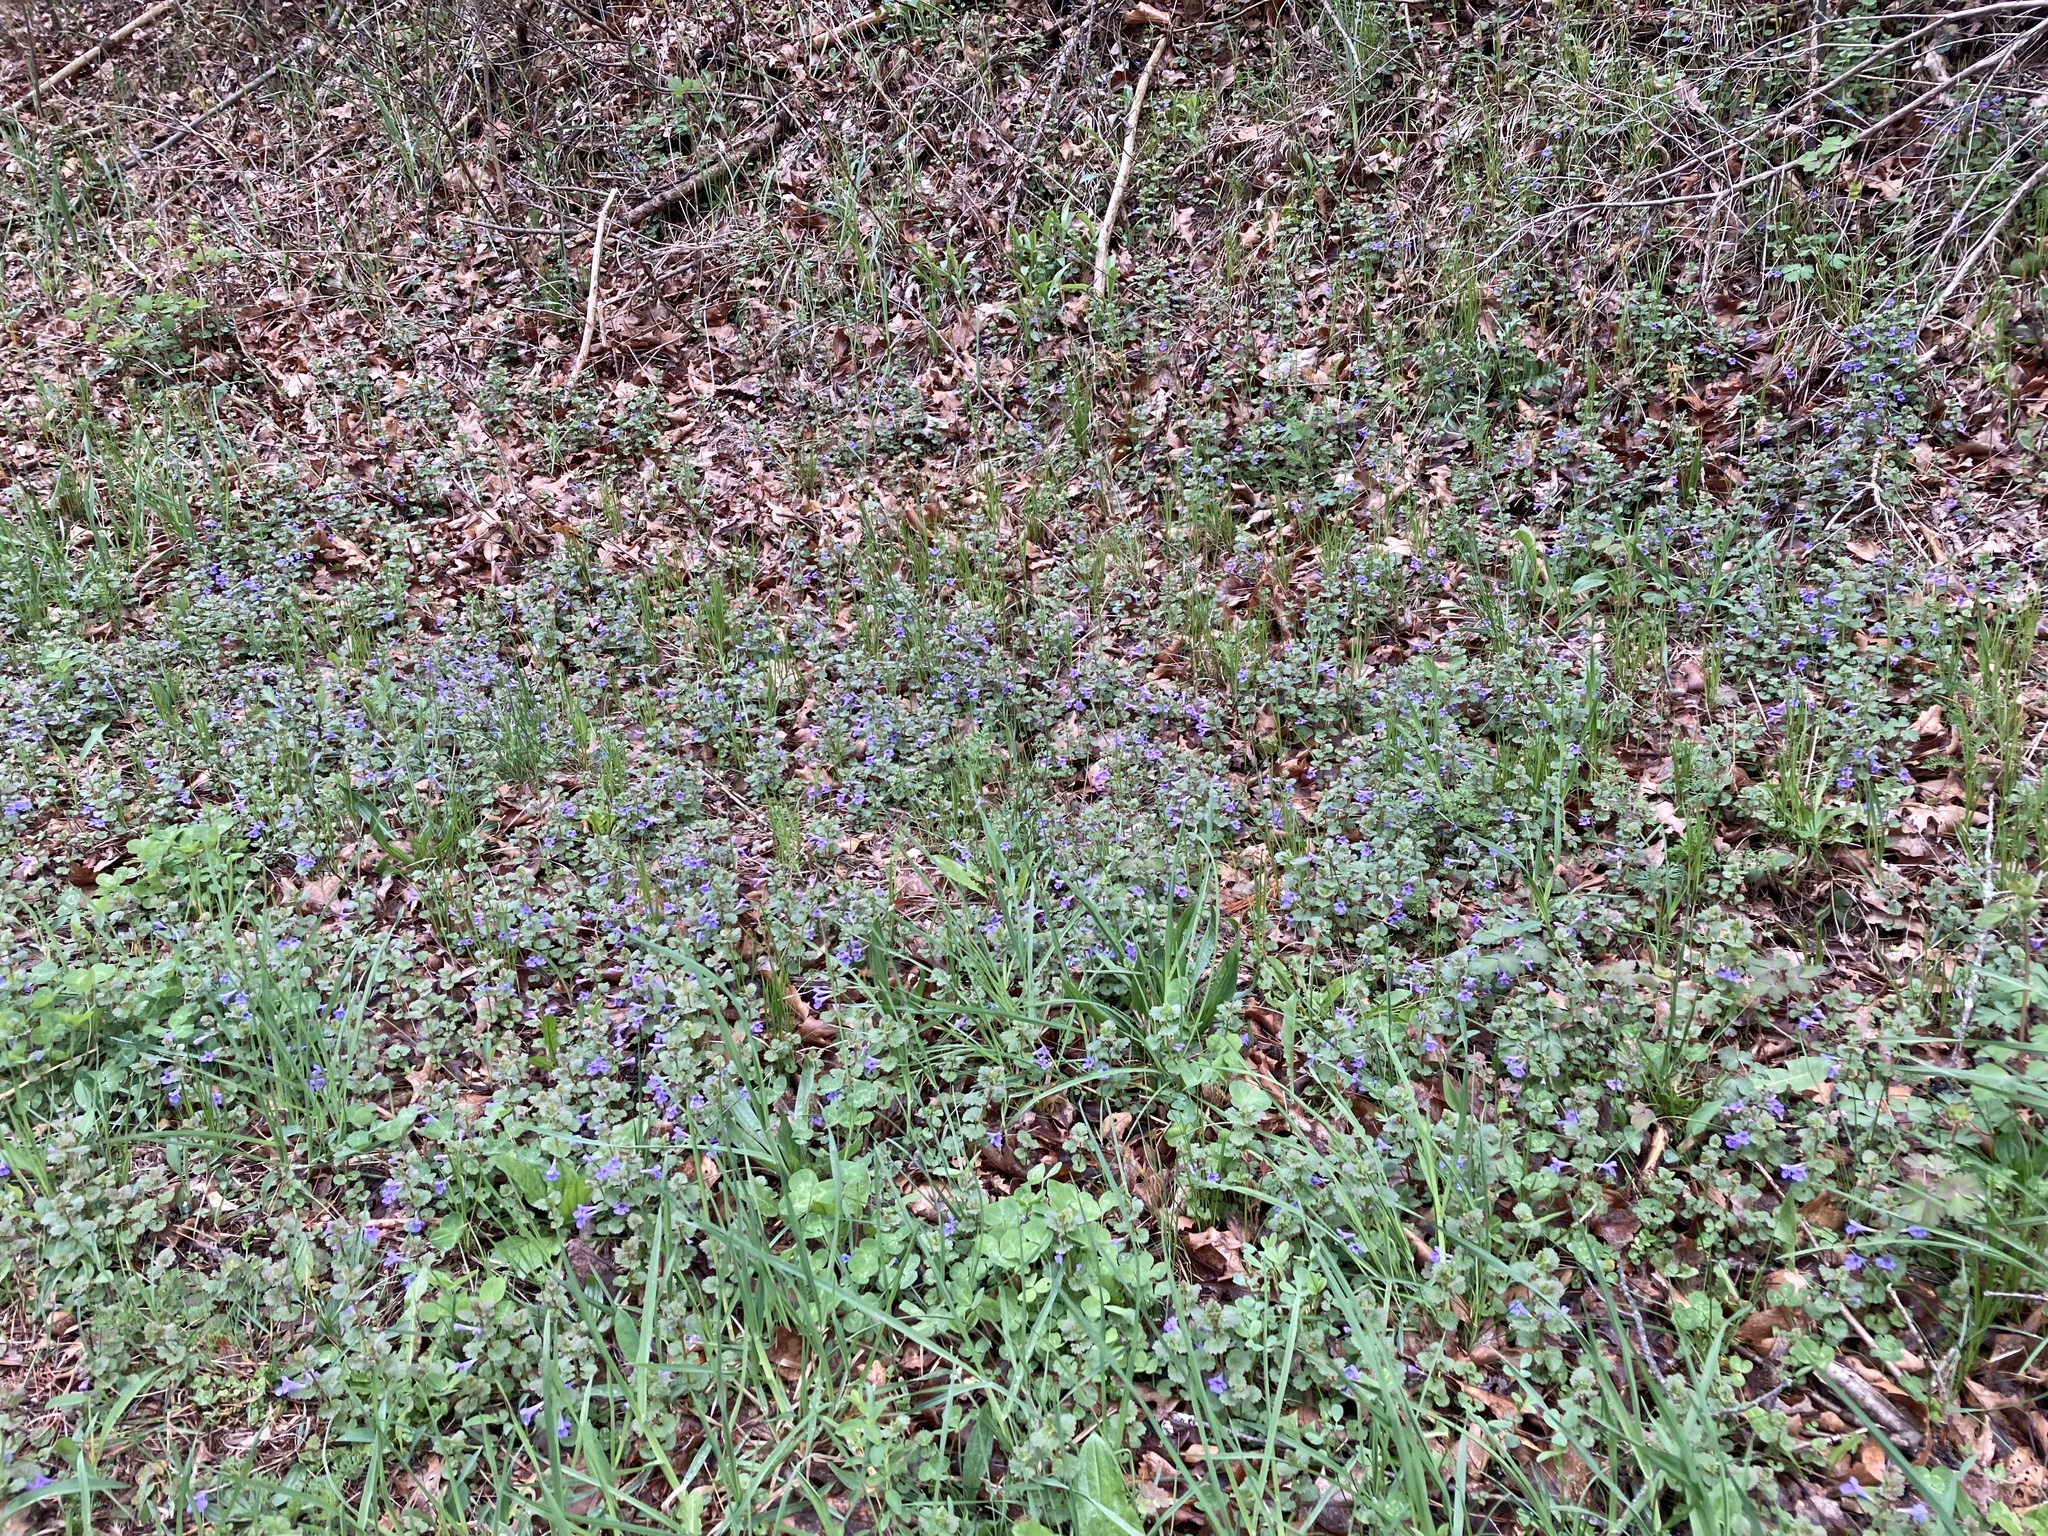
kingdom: Plantae
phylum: Tracheophyta
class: Magnoliopsida
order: Lamiales
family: Lamiaceae
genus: Glechoma
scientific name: Glechoma hederacea
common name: Ground ivy
